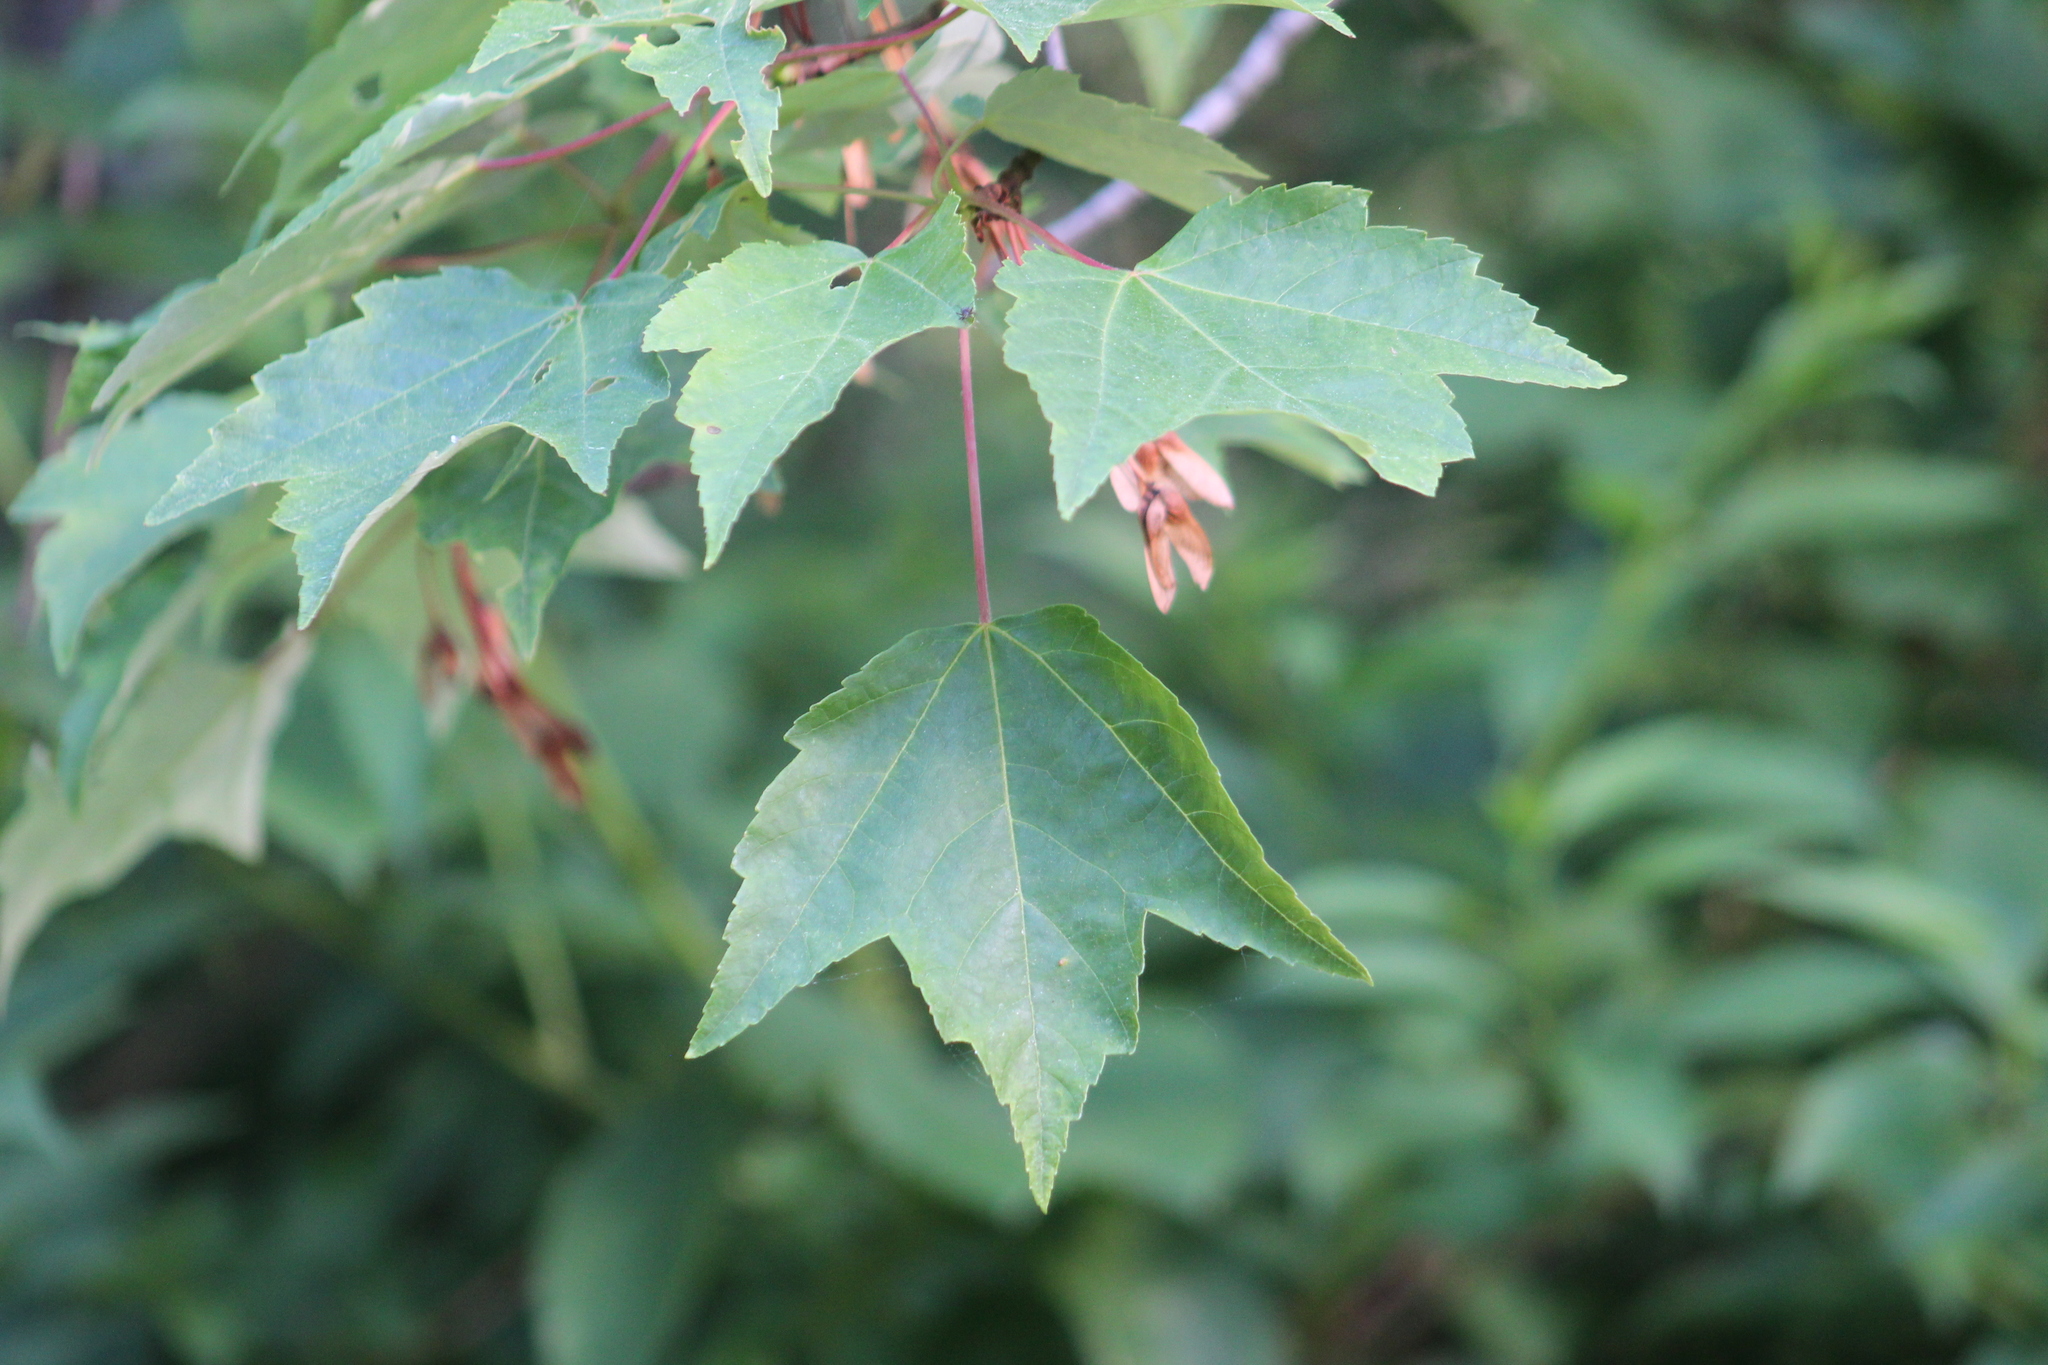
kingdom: Plantae
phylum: Tracheophyta
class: Magnoliopsida
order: Sapindales
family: Sapindaceae
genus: Acer
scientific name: Acer rubrum
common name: Red maple
